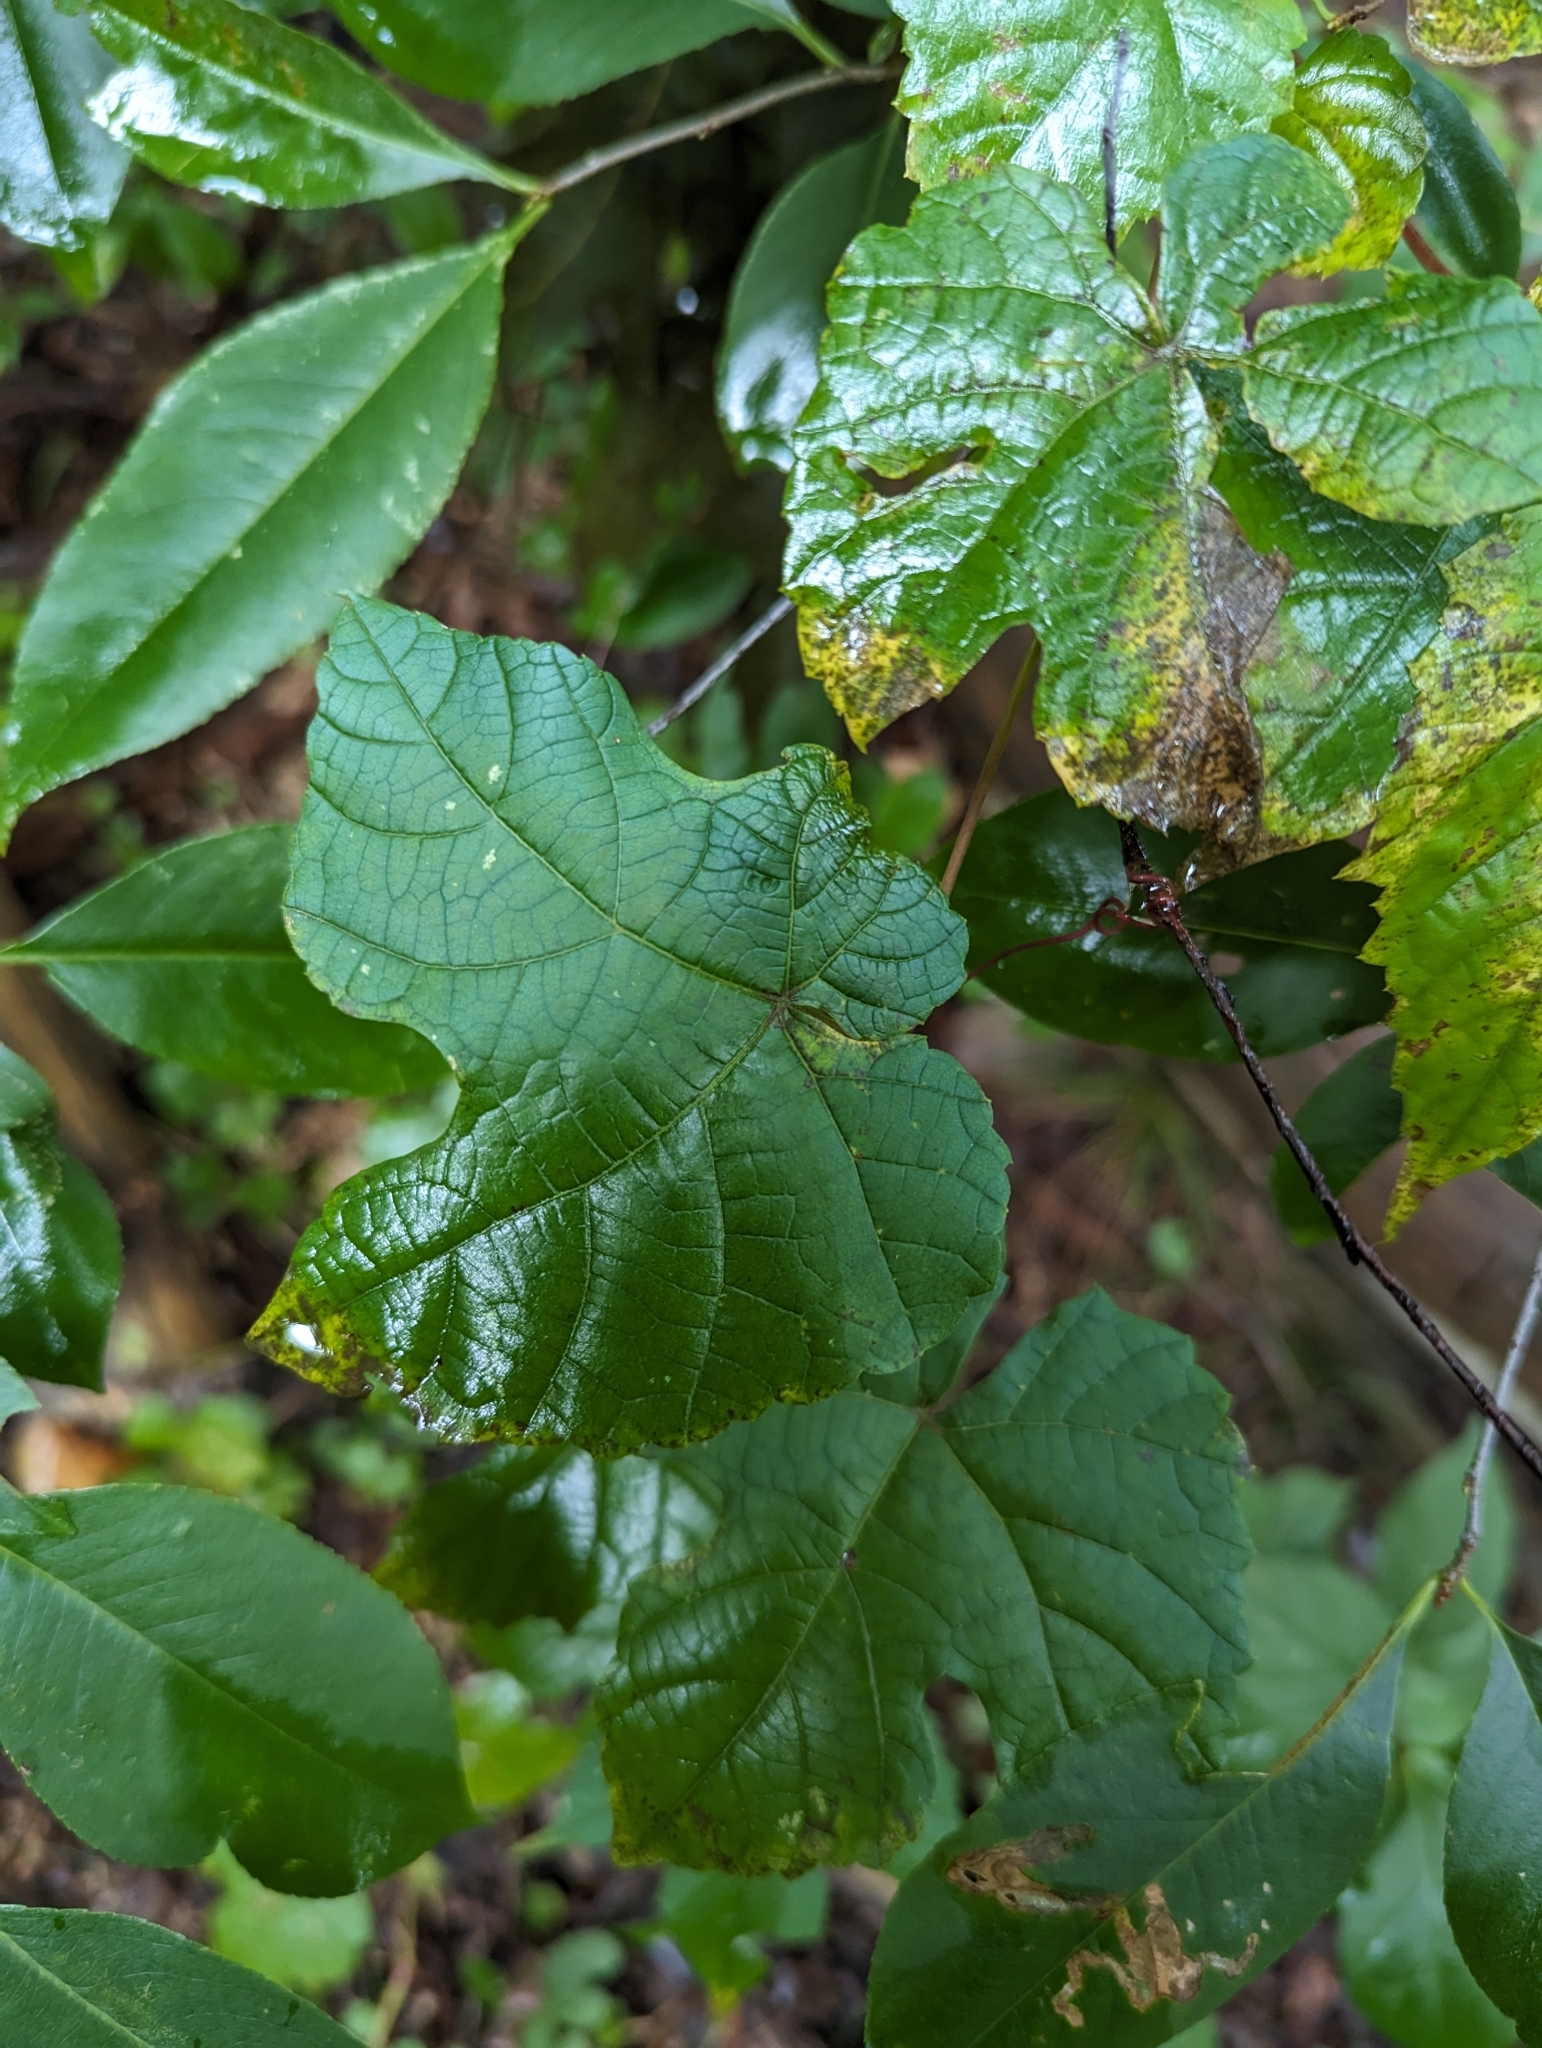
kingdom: Plantae
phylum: Tracheophyta
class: Magnoliopsida
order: Vitales
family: Vitaceae
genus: Vitis
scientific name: Vitis aestivalis
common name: Pigeon grape
